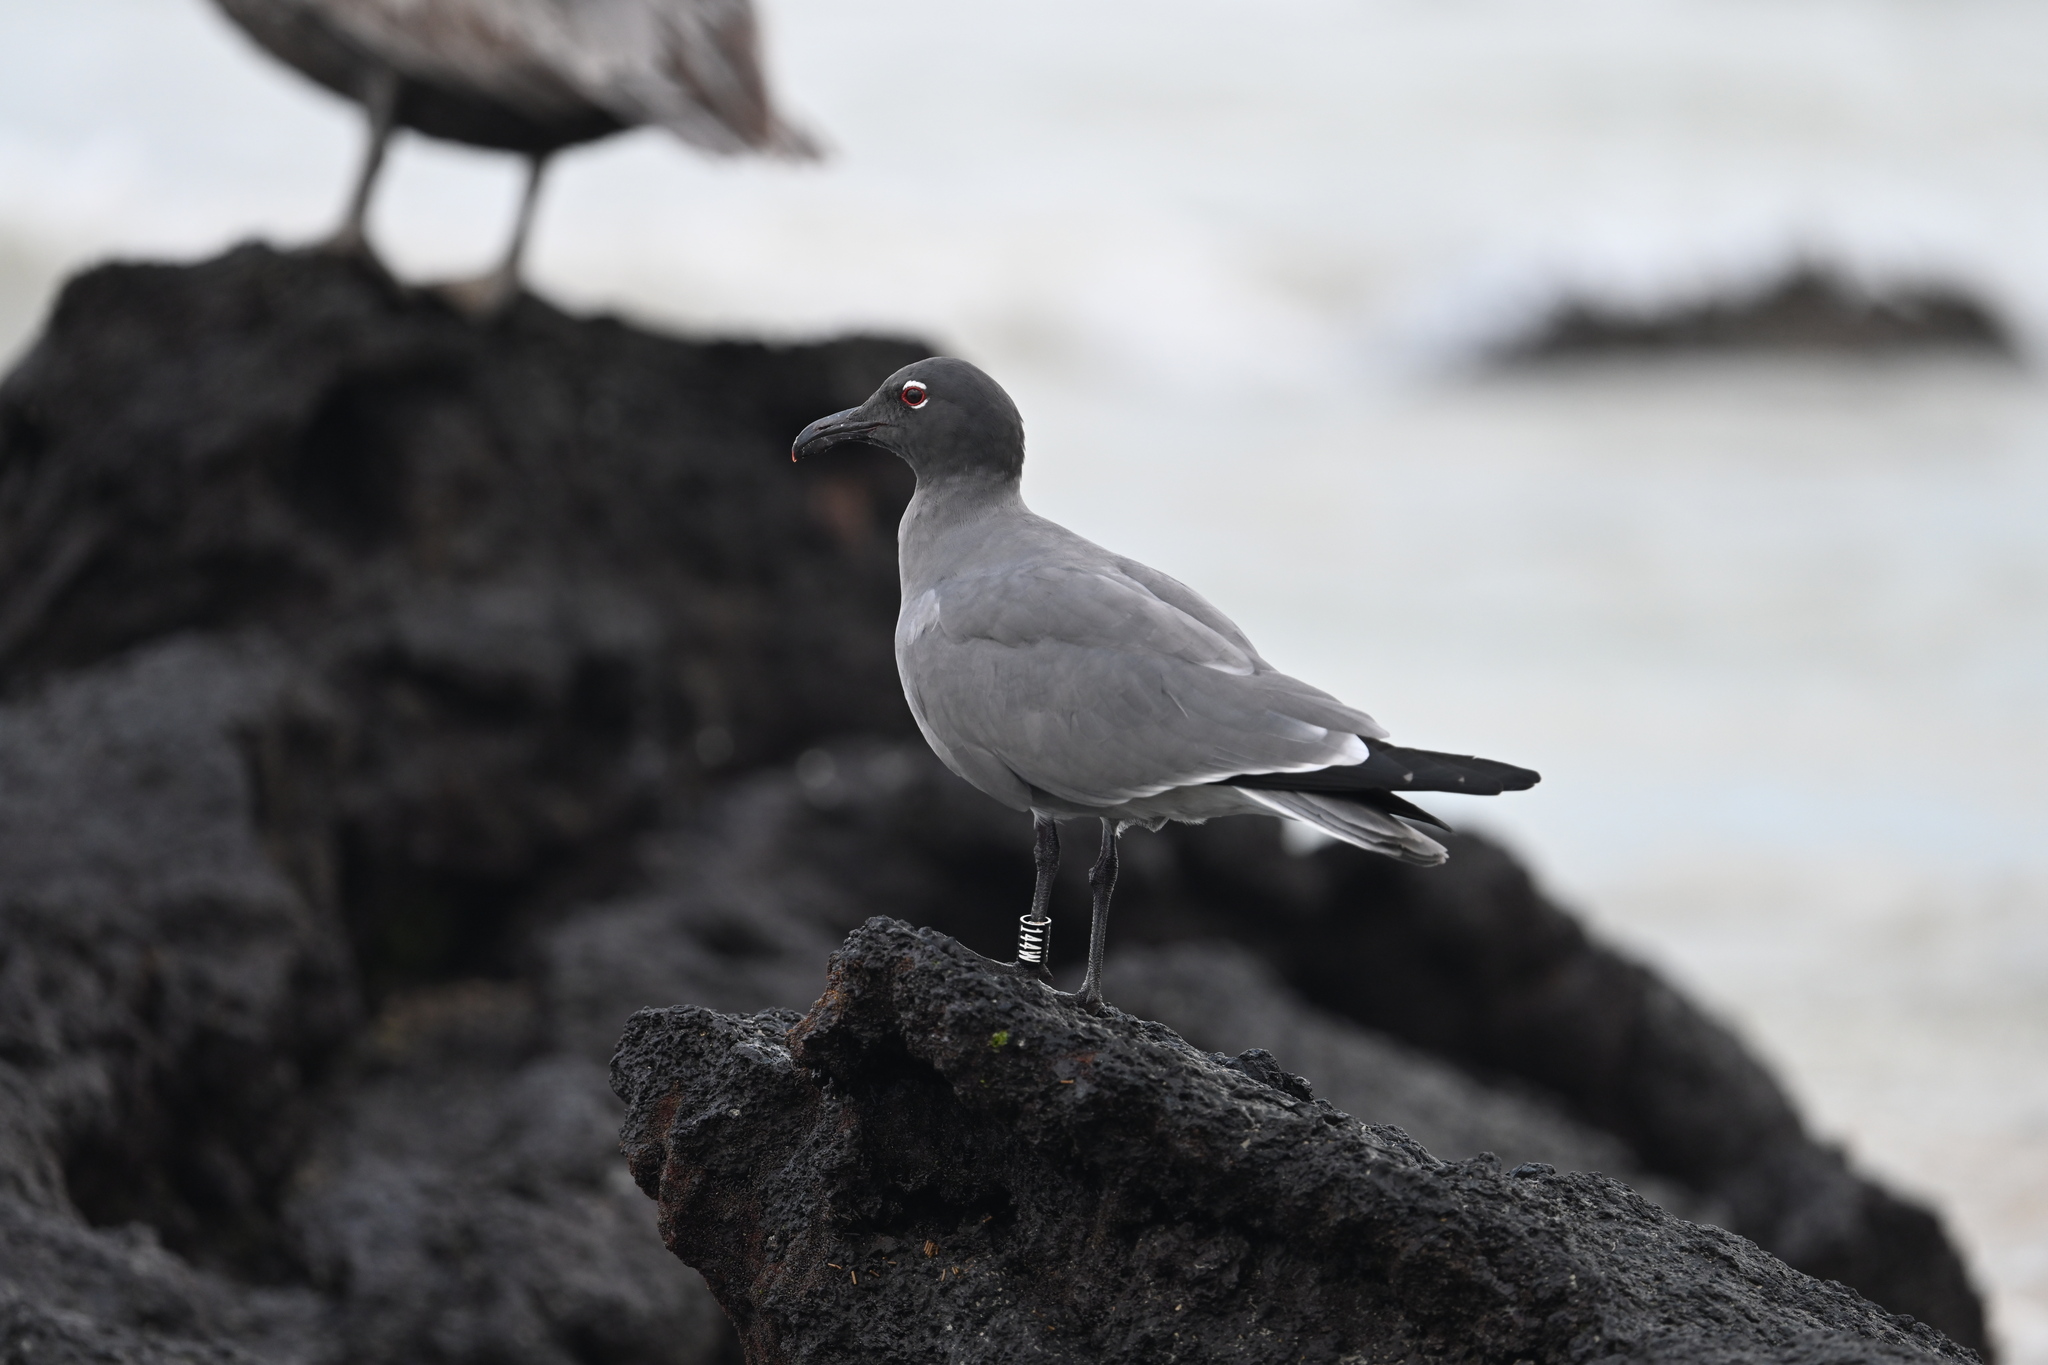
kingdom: Animalia
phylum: Chordata
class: Aves
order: Charadriiformes
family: Laridae
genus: Leucophaeus
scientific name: Leucophaeus fuliginosus
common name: Lava gull
